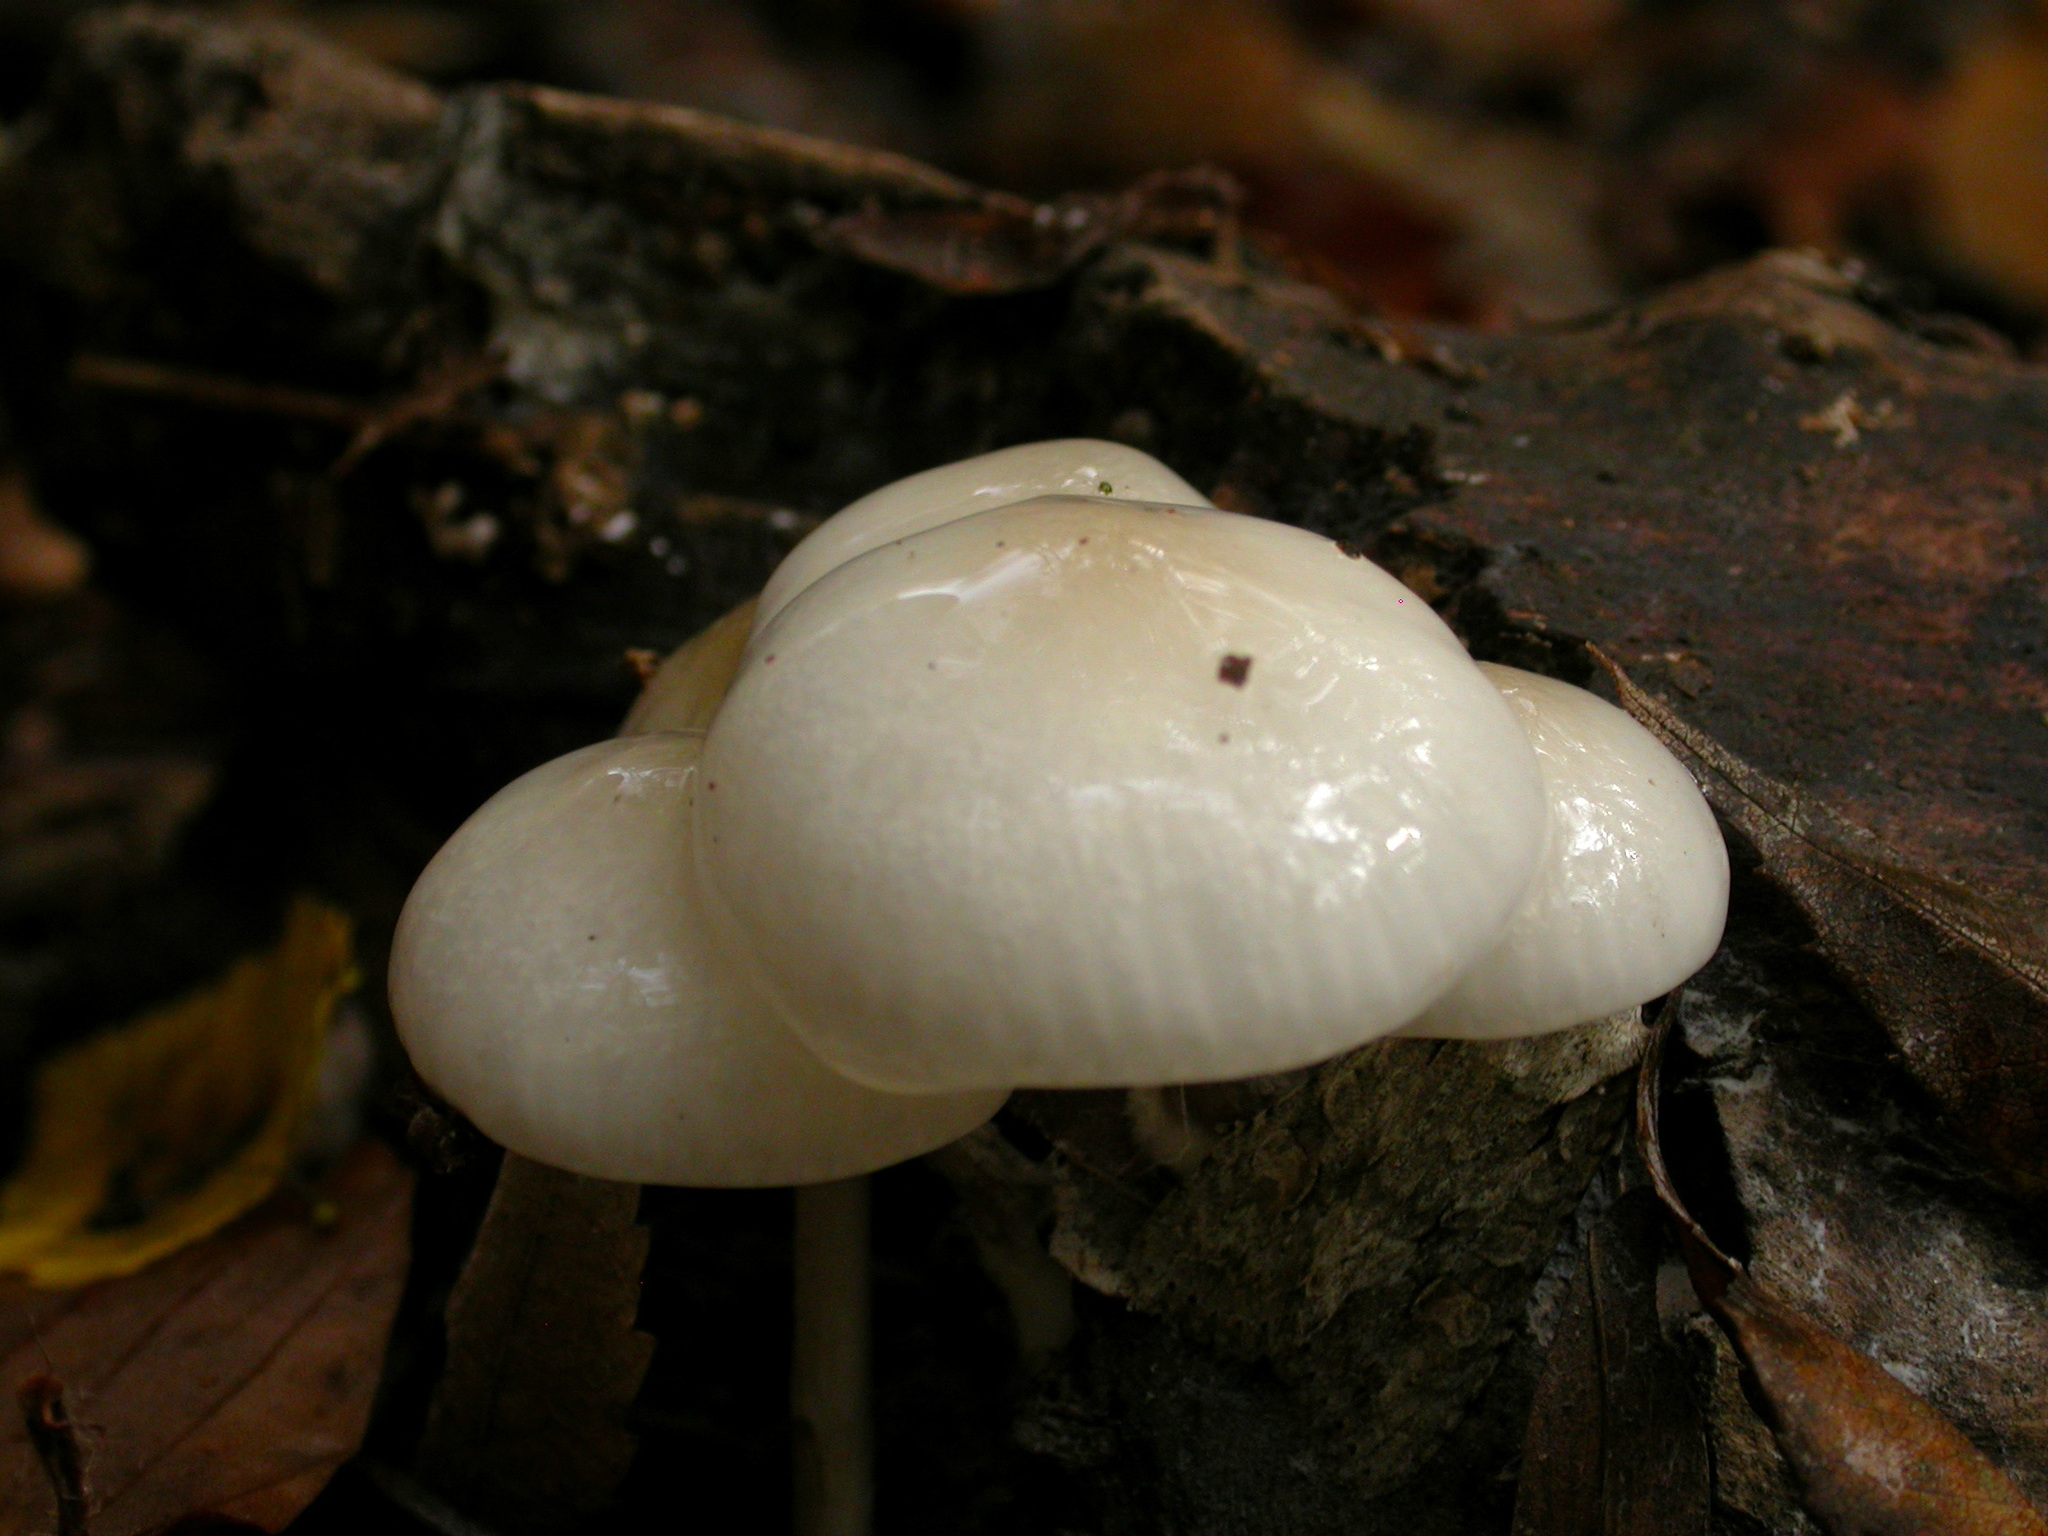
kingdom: Fungi
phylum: Basidiomycota
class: Agaricomycetes
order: Agaricales
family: Physalacriaceae
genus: Mucidula
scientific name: Mucidula mucida
